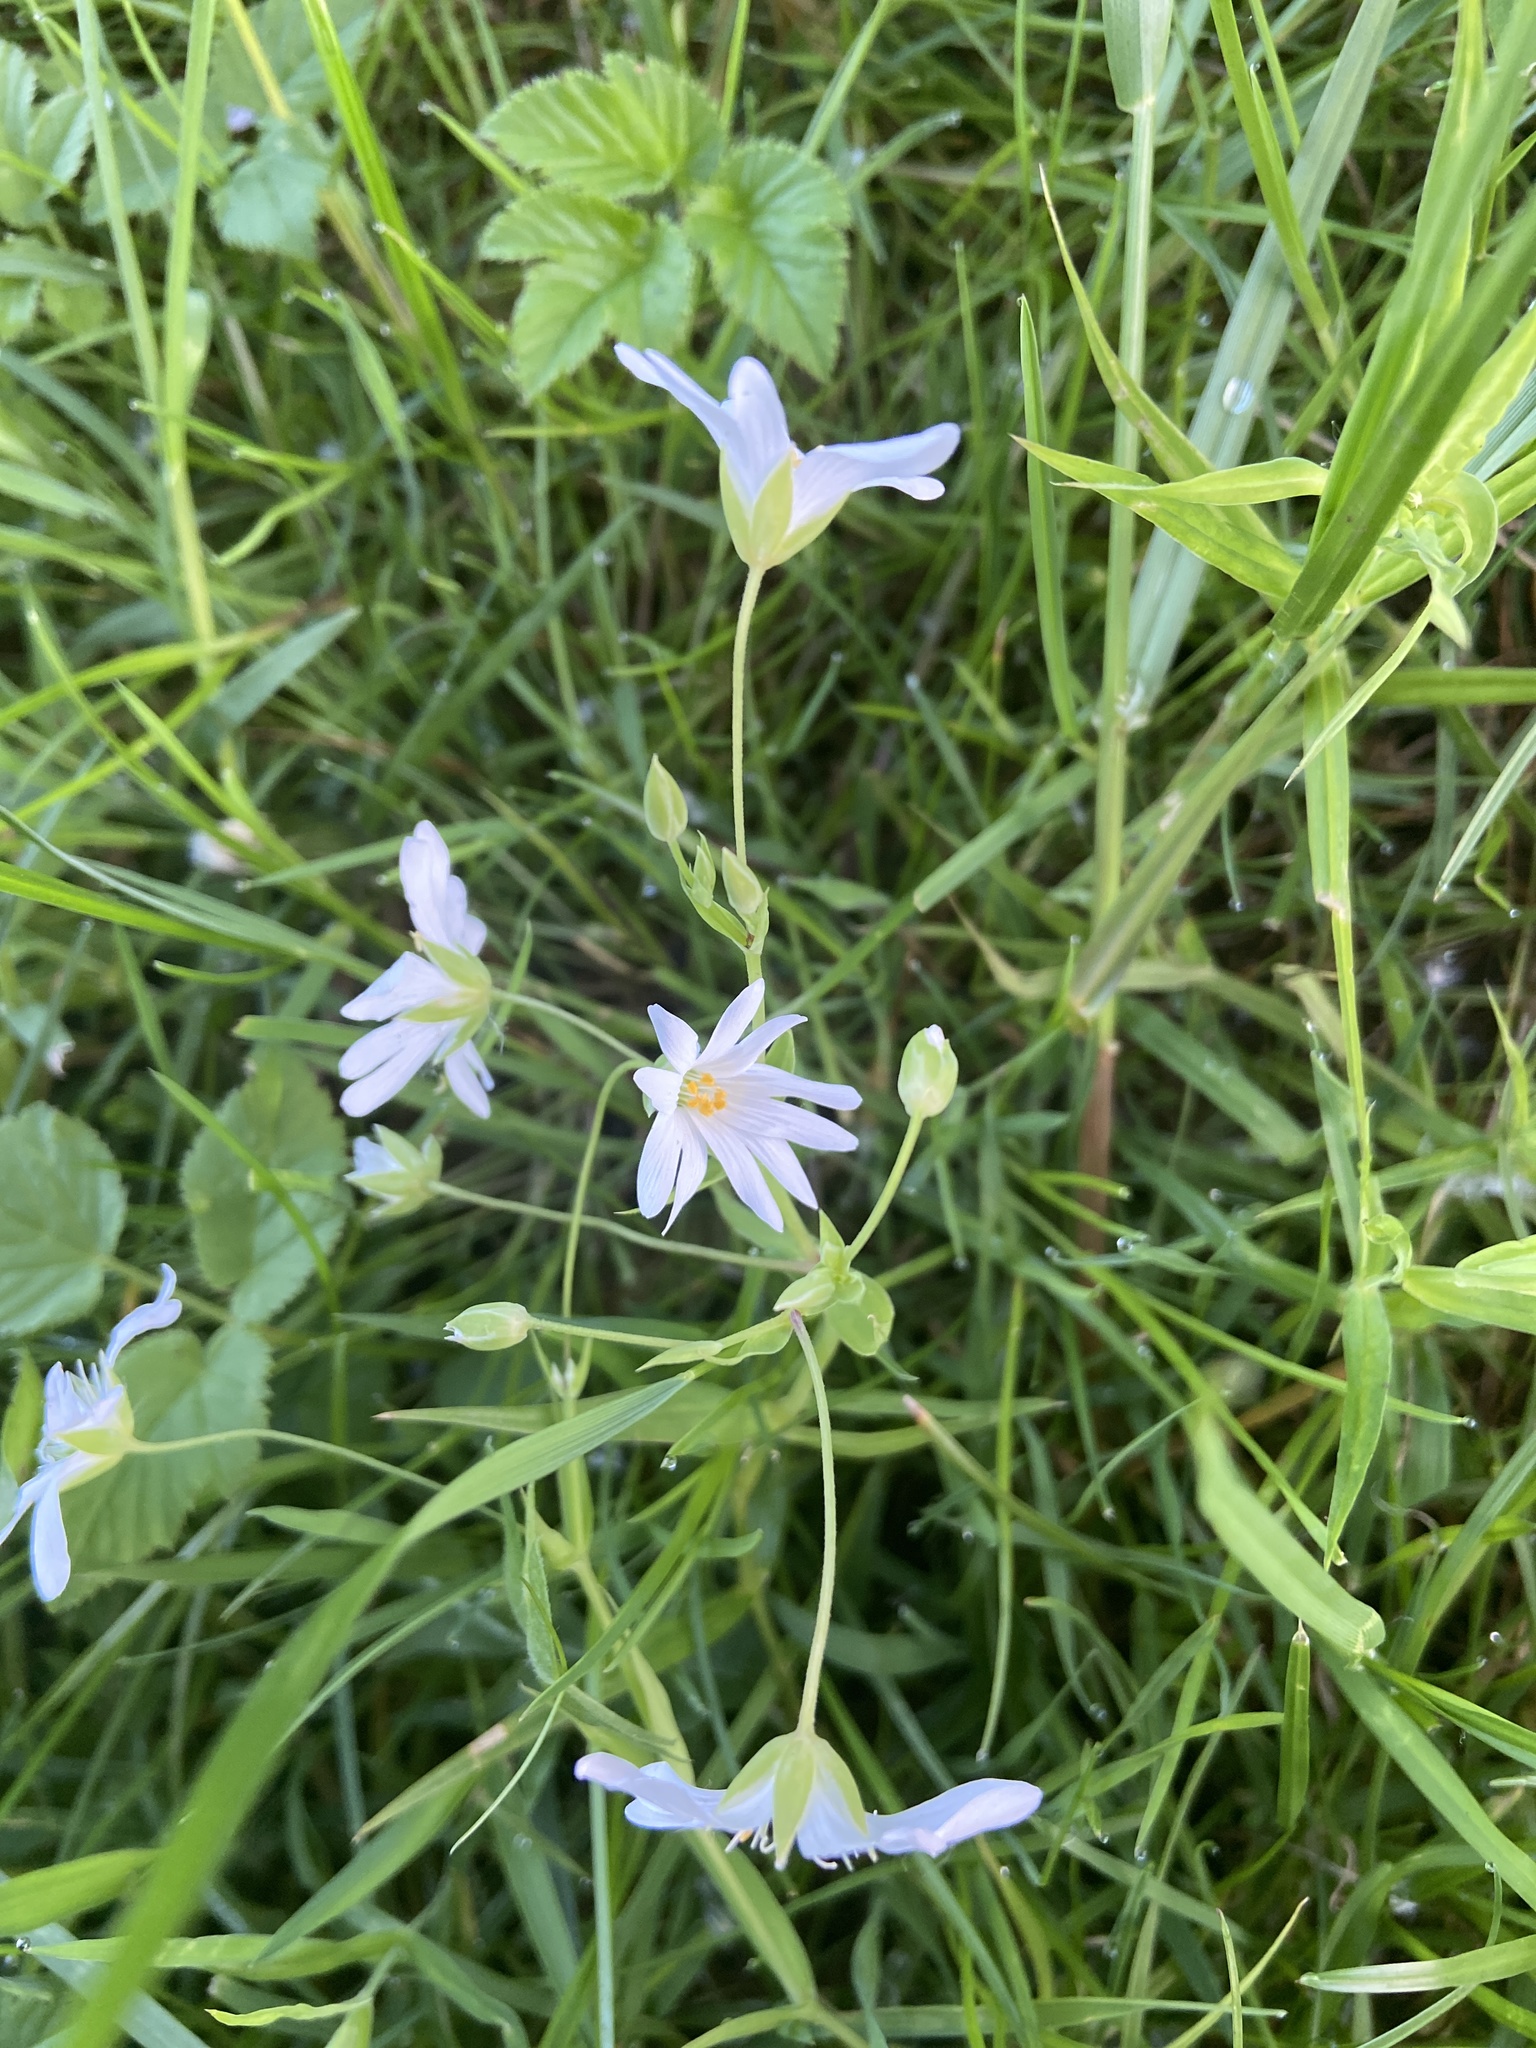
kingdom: Plantae
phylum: Tracheophyta
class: Magnoliopsida
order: Caryophyllales
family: Caryophyllaceae
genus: Rabelera
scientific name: Rabelera holostea
